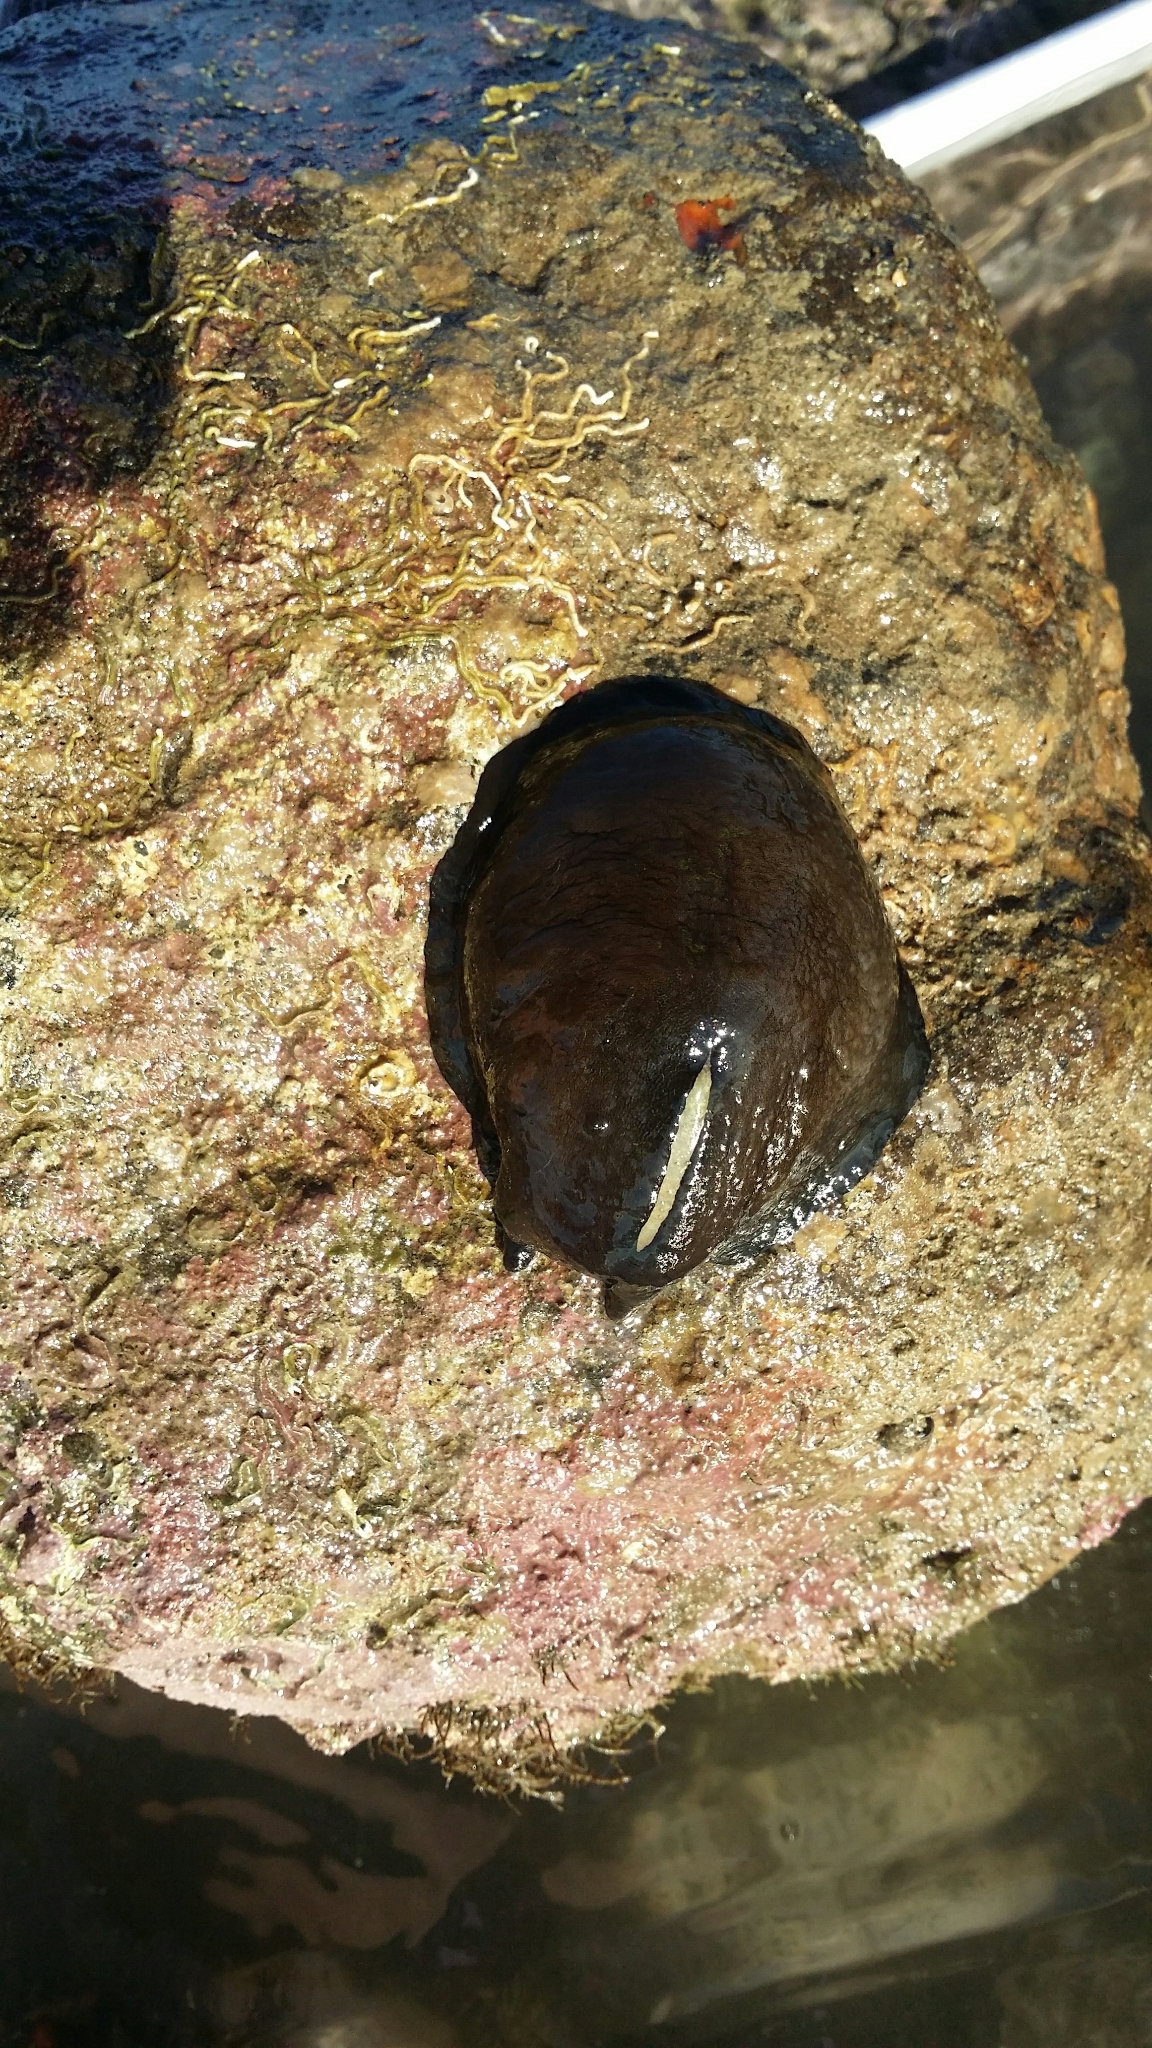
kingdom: Animalia
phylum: Mollusca
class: Gastropoda
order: Lepetellida
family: Fissurellidae
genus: Scutus
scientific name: Scutus breviculus
